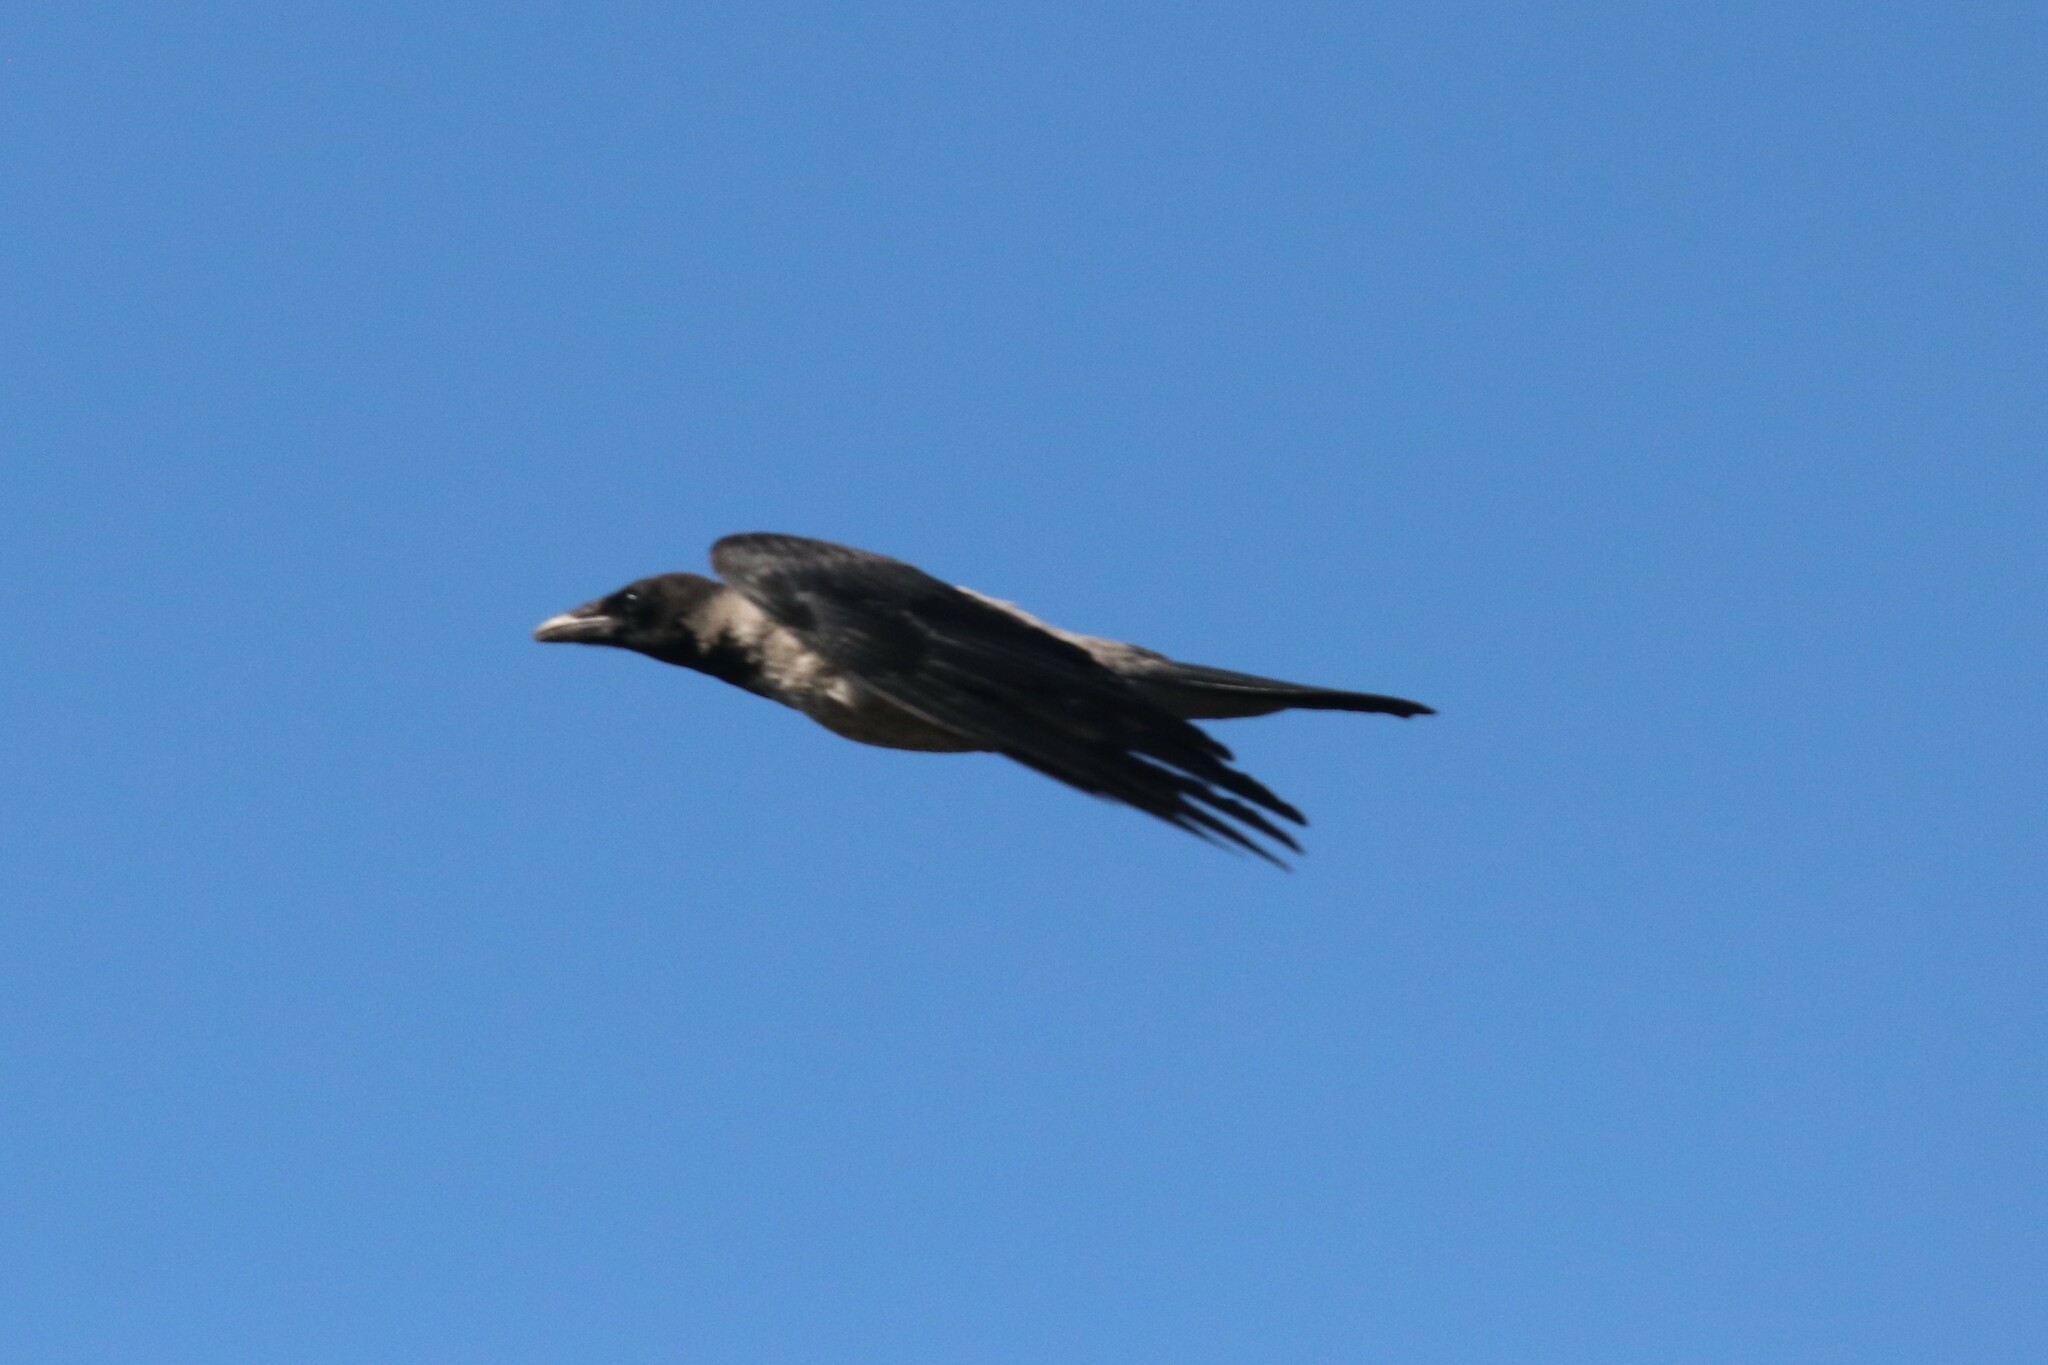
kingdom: Animalia
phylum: Chordata
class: Aves
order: Passeriformes
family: Corvidae
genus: Corvus
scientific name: Corvus cornix
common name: Hooded crow
